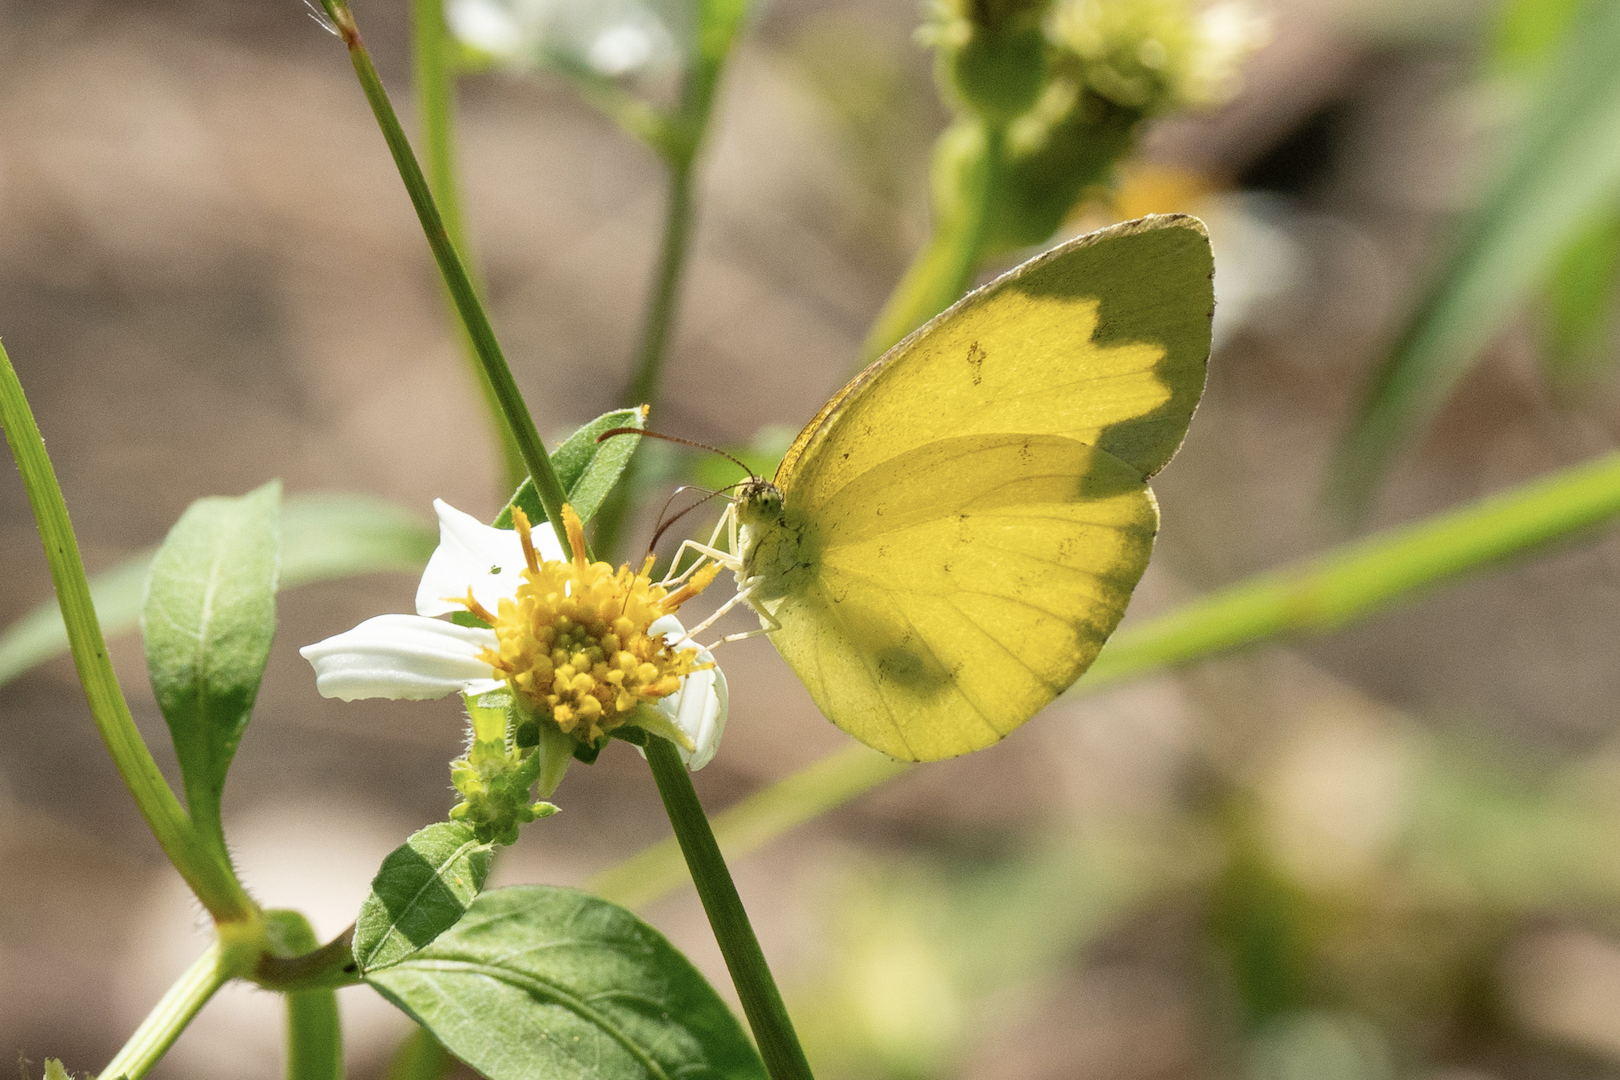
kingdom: Animalia
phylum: Arthropoda
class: Insecta
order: Lepidoptera
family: Pieridae
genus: Eurema
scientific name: Eurema hecabe
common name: Pale grass yellow
